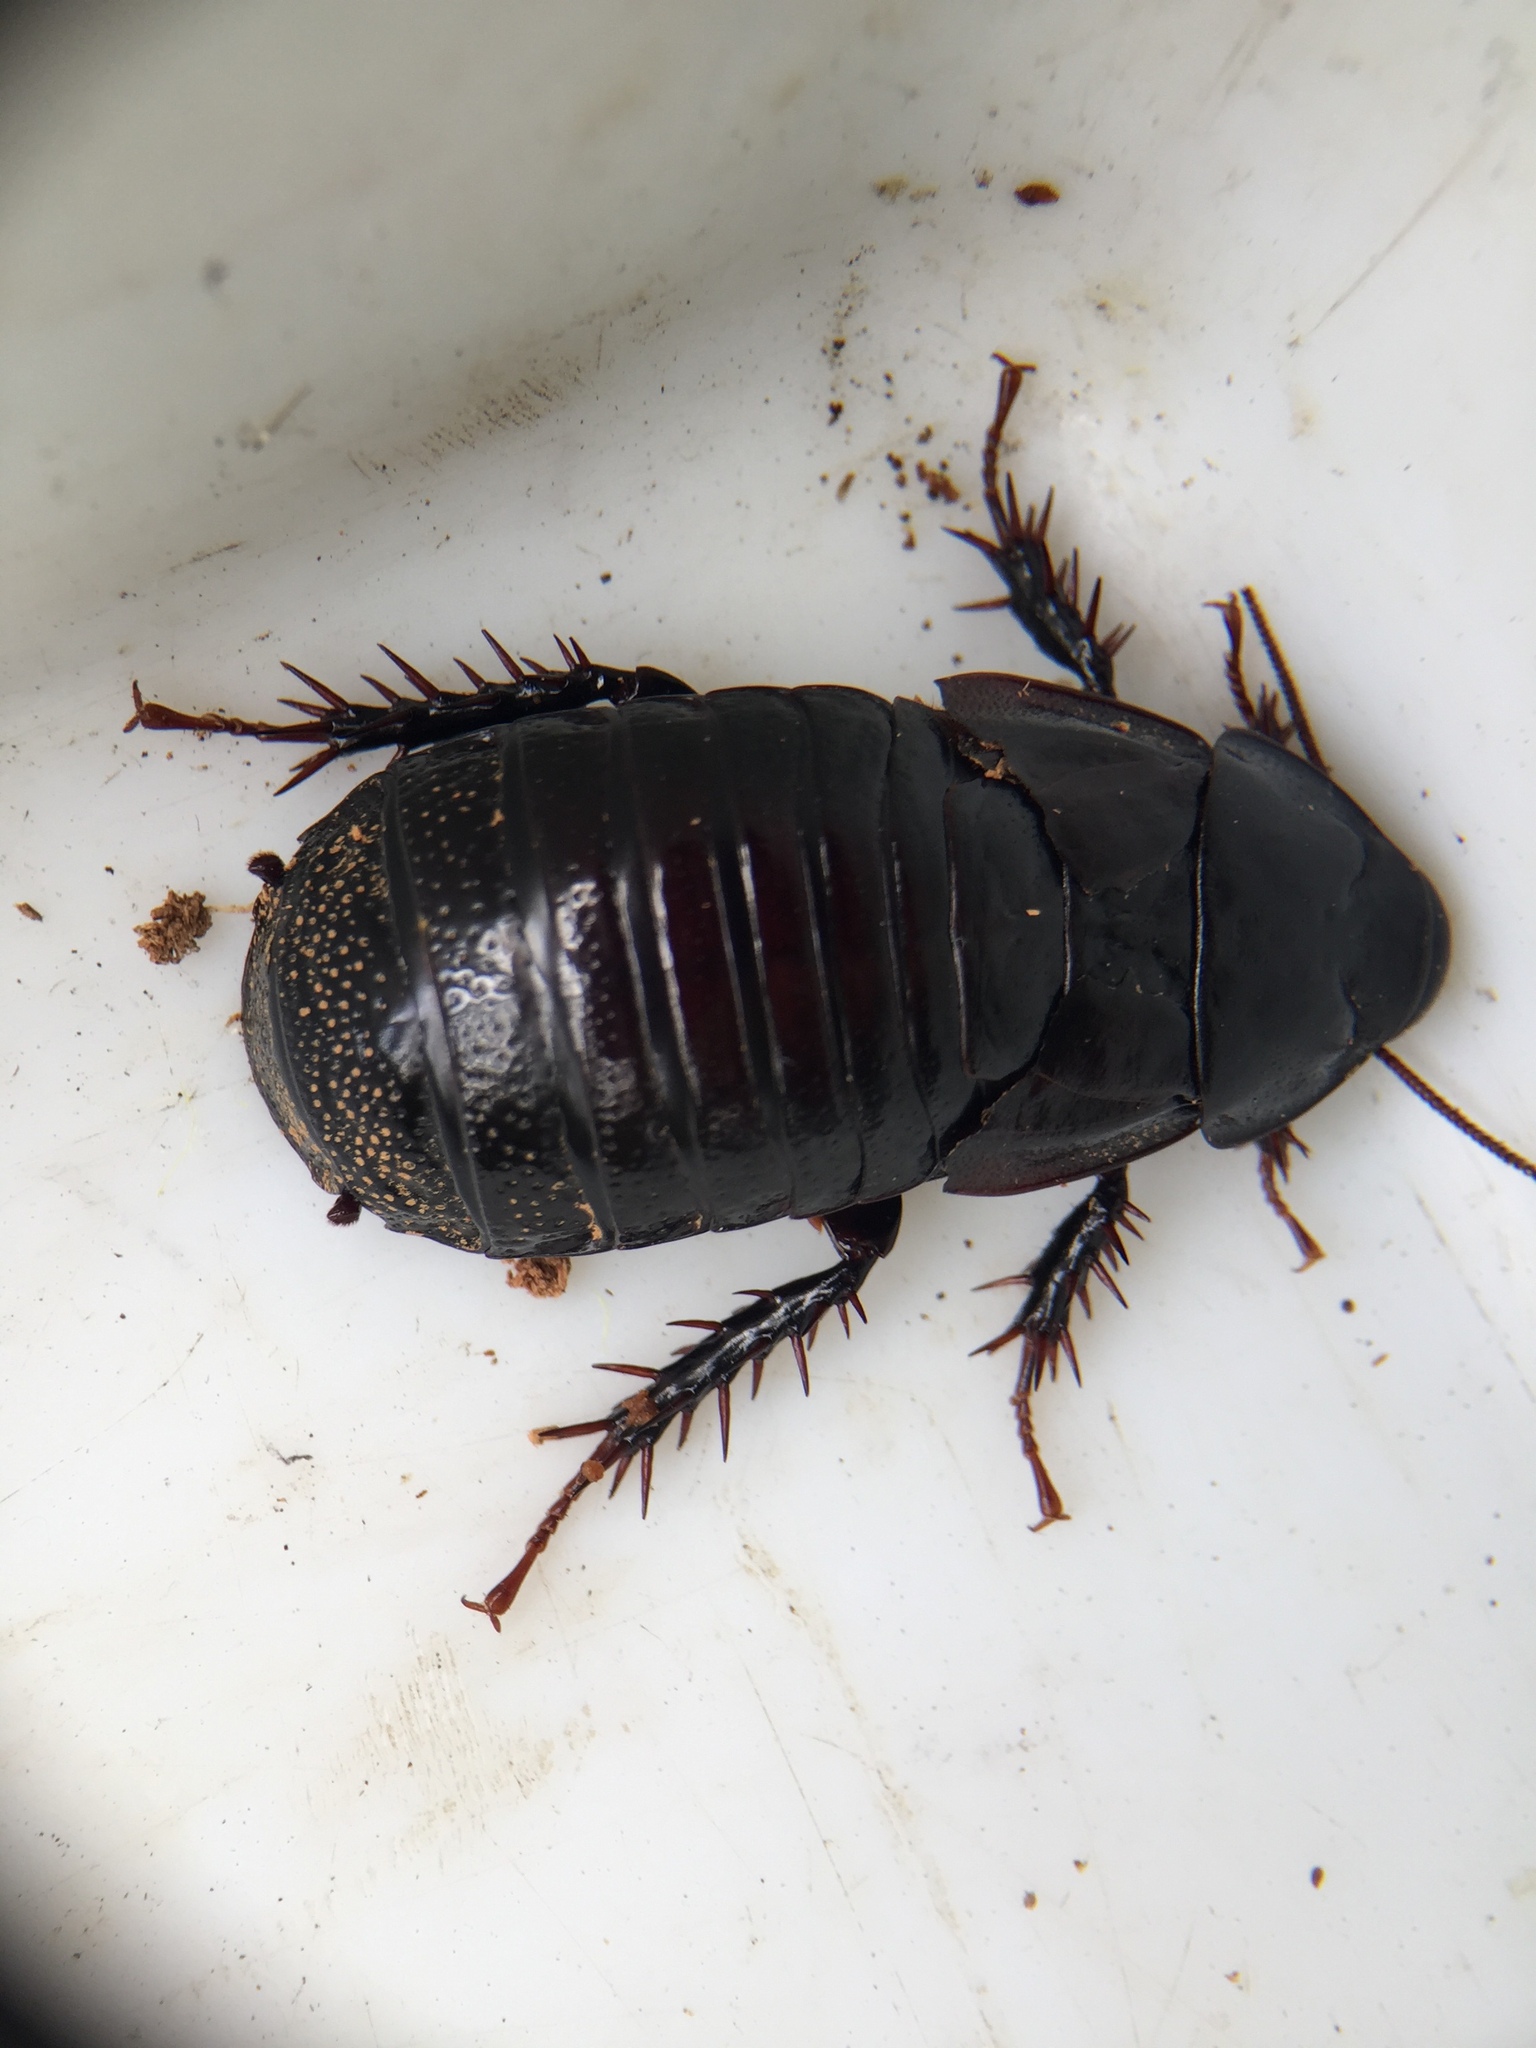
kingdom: Animalia
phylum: Arthropoda
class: Insecta
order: Blattodea
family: Blaberidae
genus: Panesthia
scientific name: Panesthia cribrata
